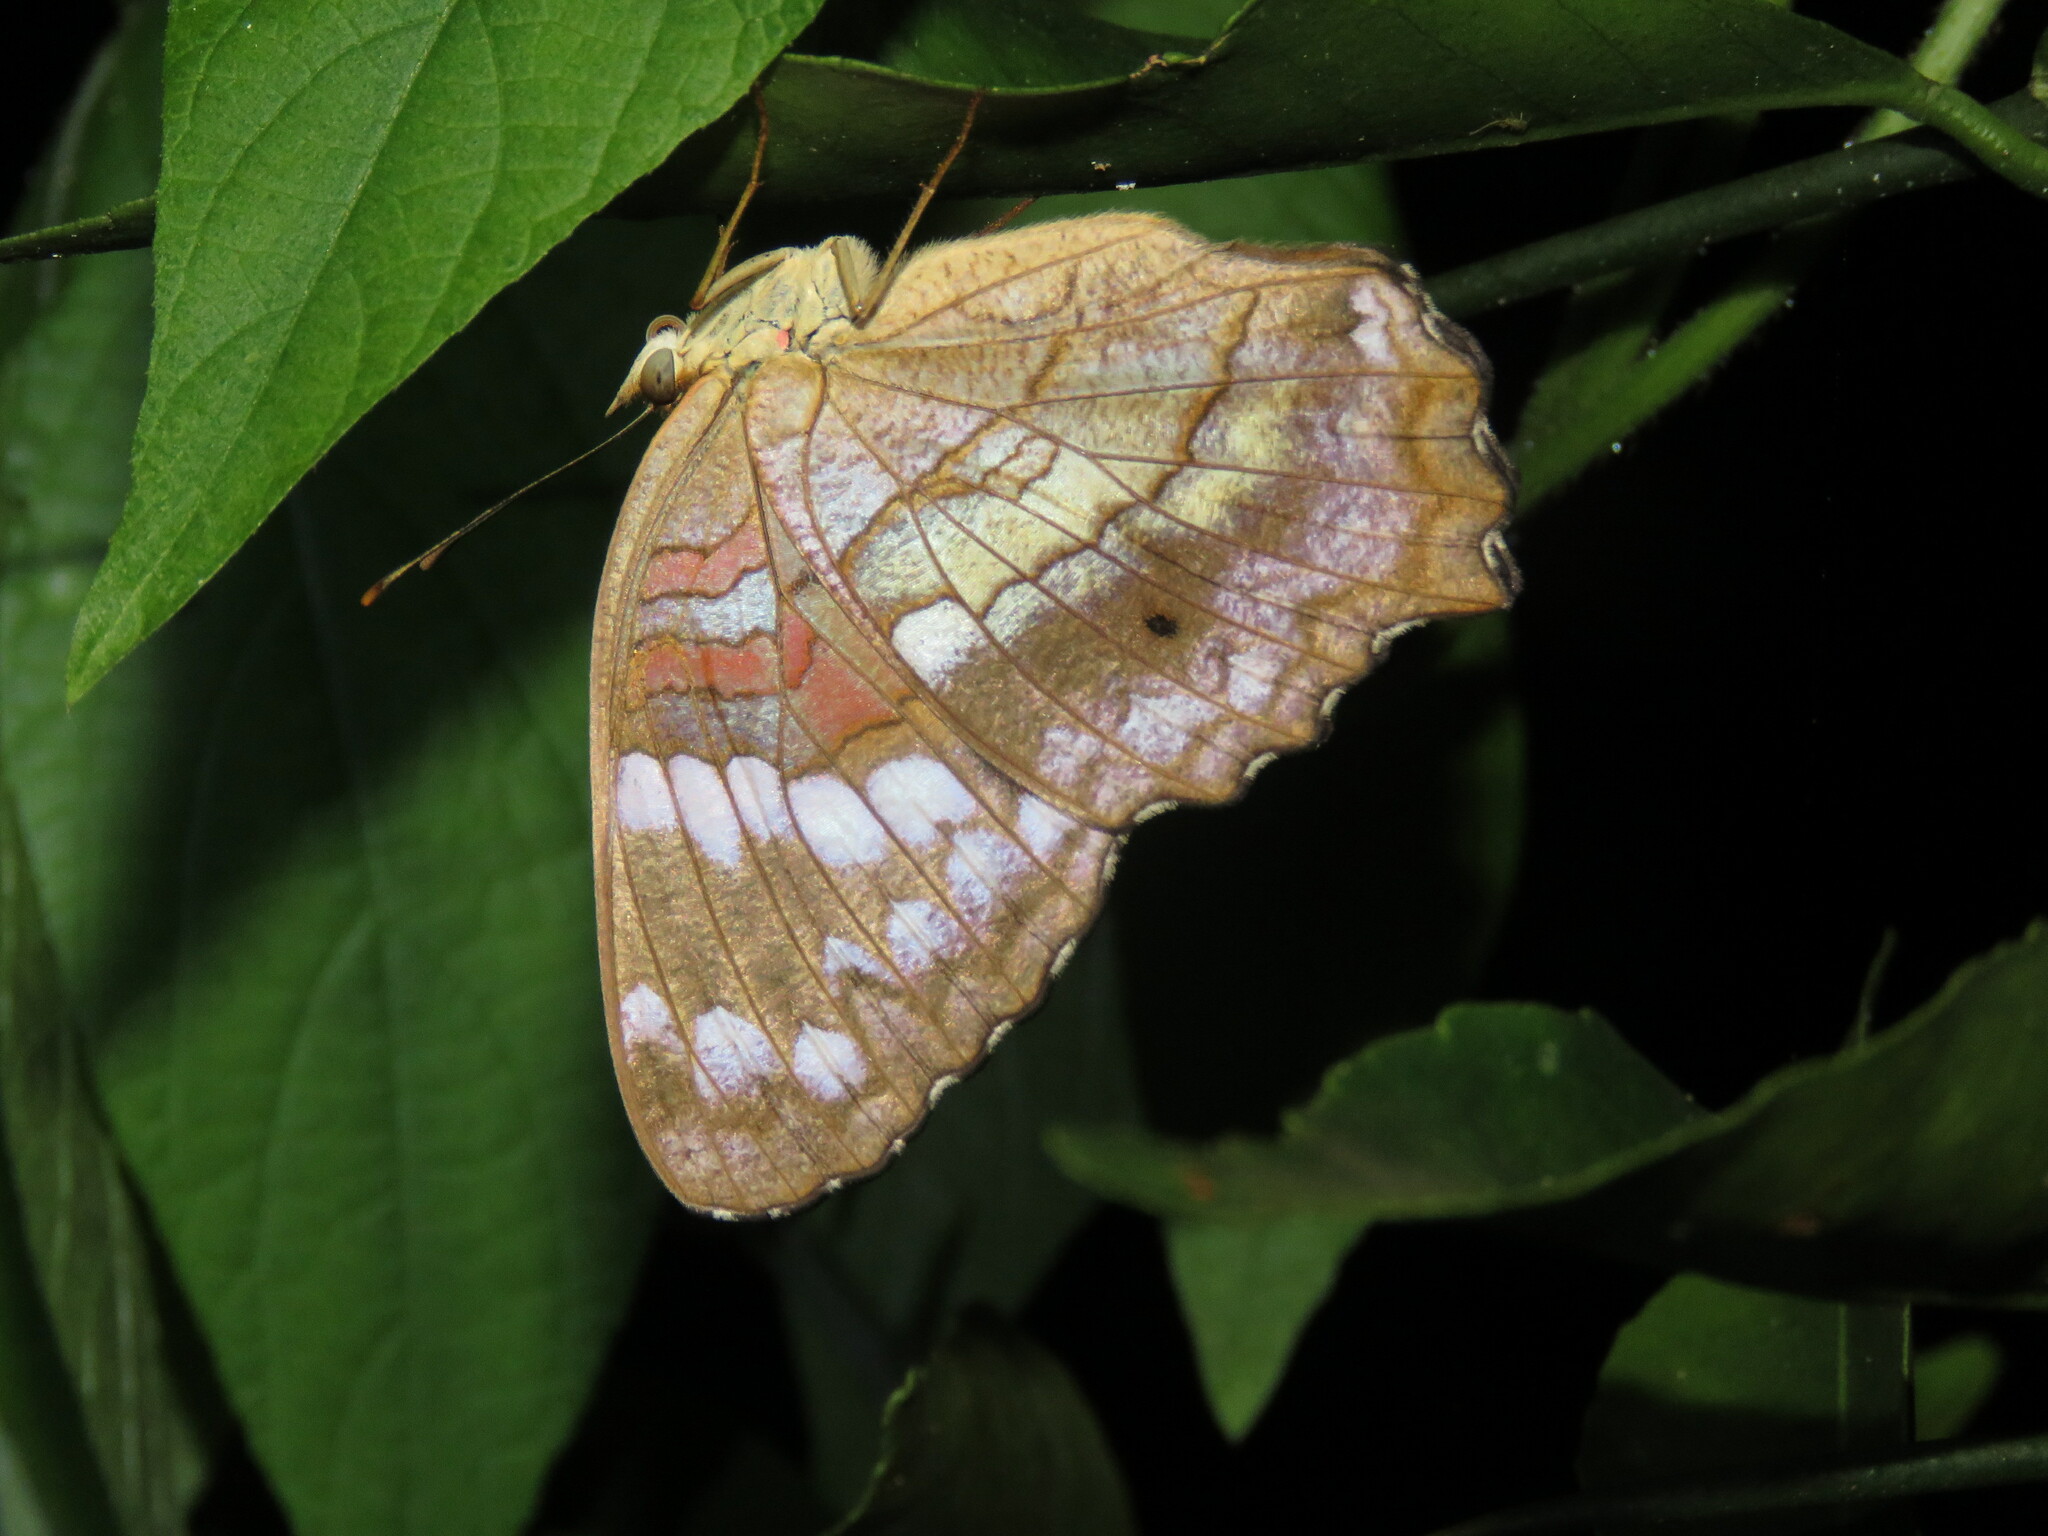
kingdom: Animalia
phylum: Arthropoda
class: Insecta
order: Lepidoptera
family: Nymphalidae
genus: Anartia
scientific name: Anartia amathea
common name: Red peacock
